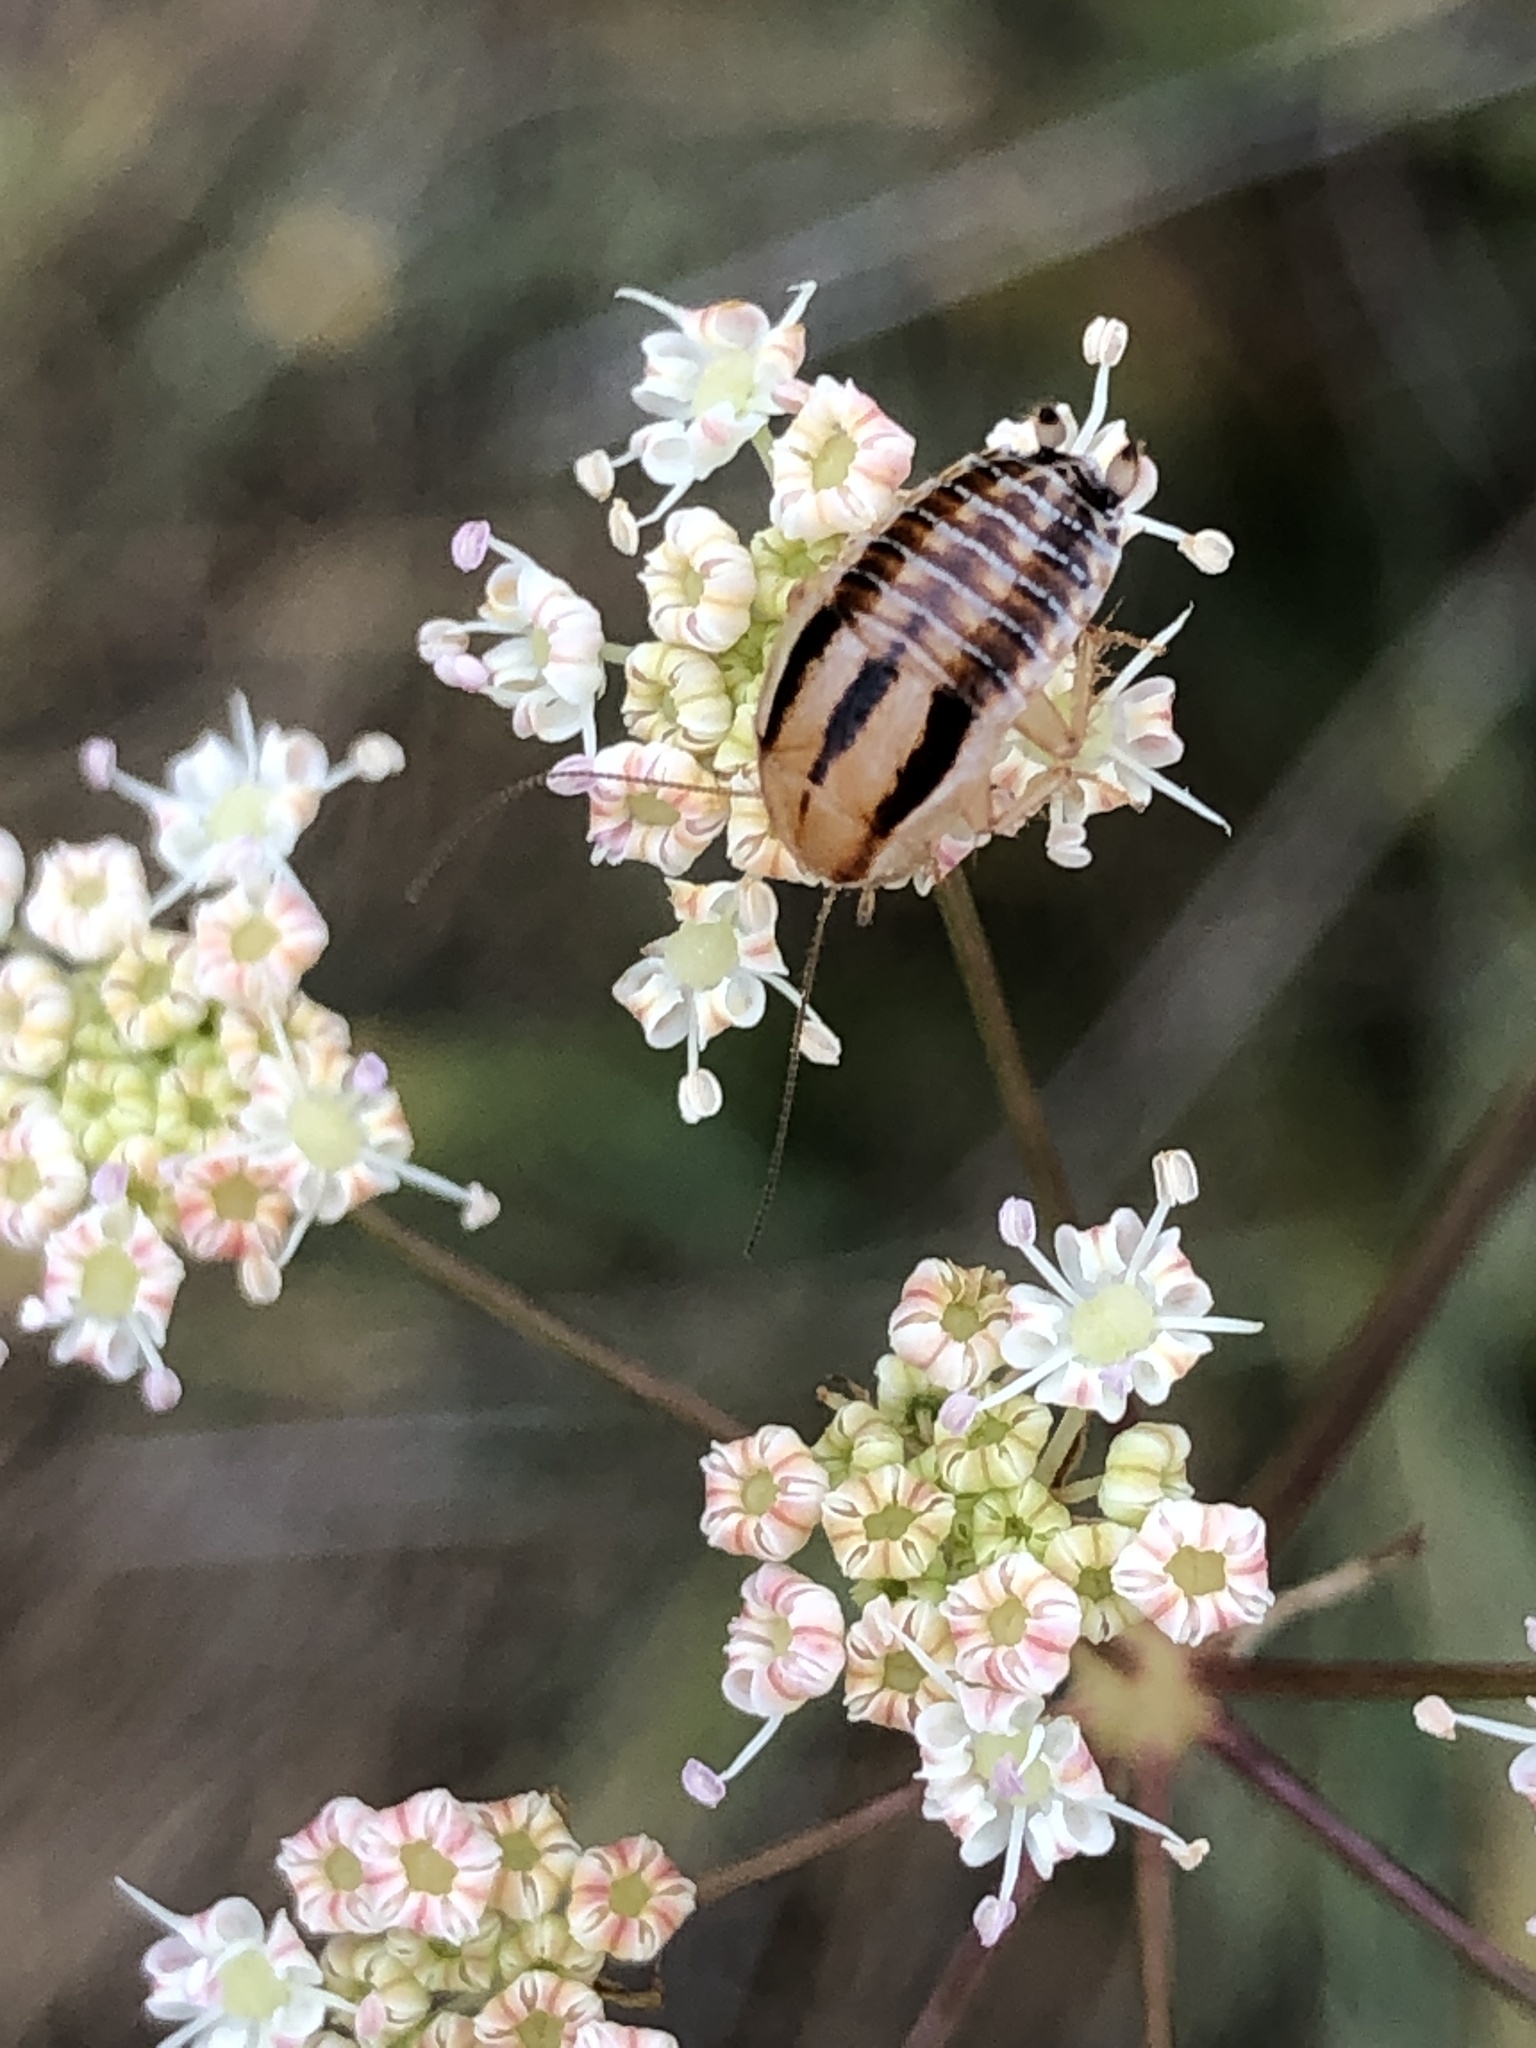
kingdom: Animalia
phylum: Arthropoda
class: Insecta
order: Blattodea
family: Ectobiidae
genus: Luridiblatta
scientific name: Luridiblatta trivittata
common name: Three-lined cockroach
